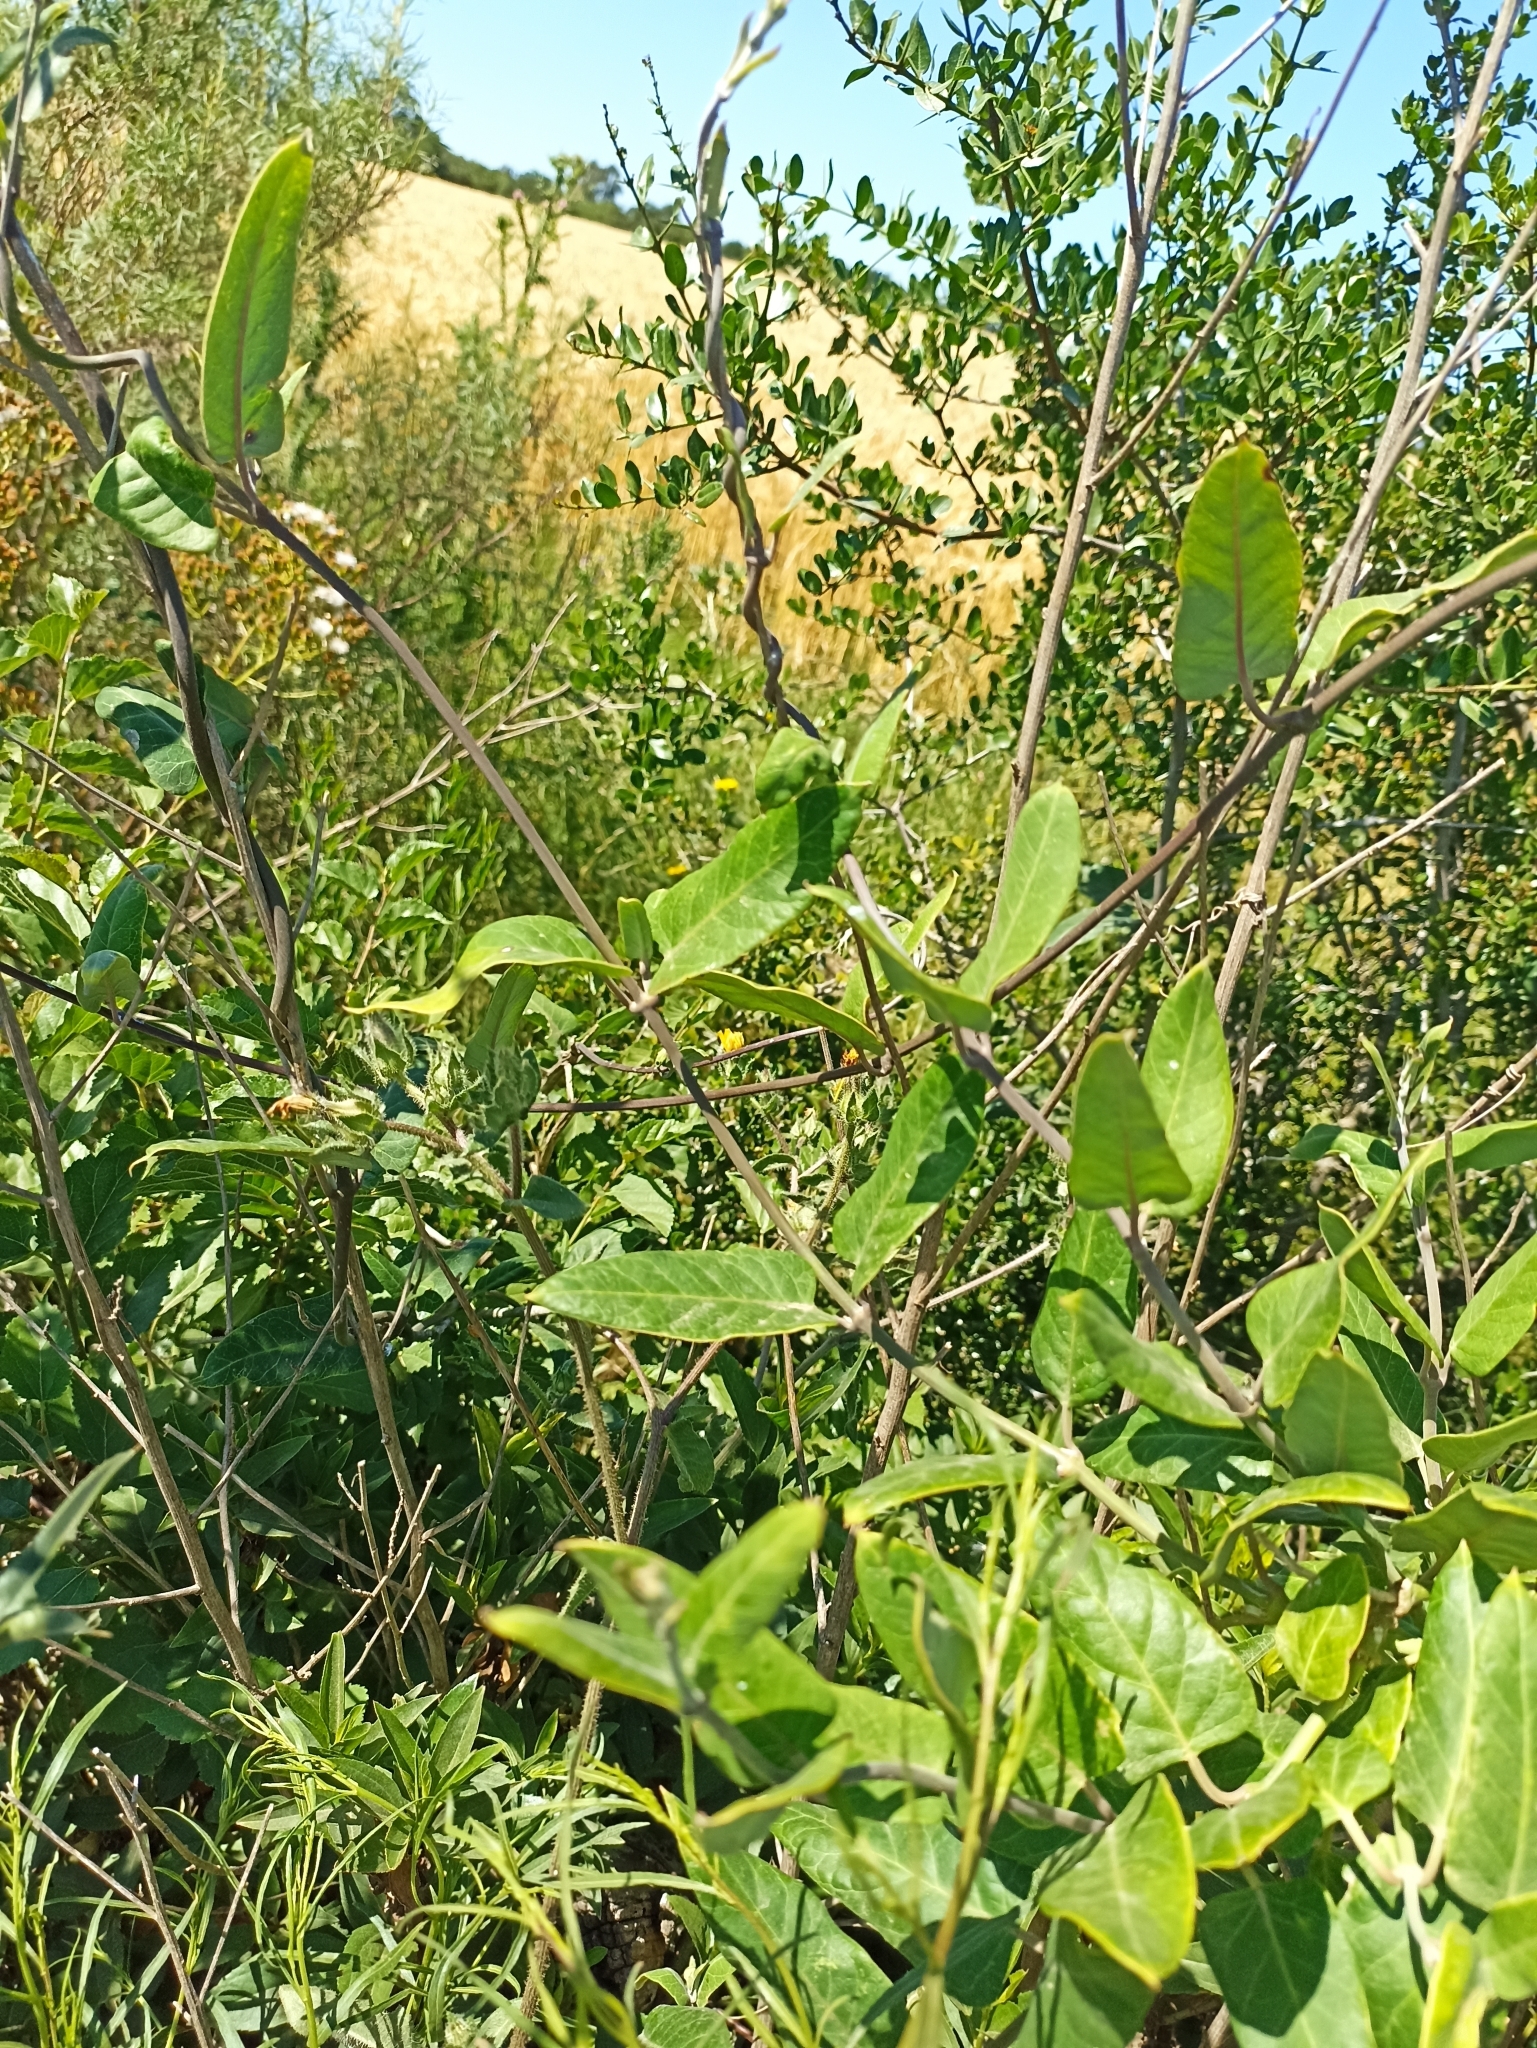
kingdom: Plantae
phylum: Tracheophyta
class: Magnoliopsida
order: Gentianales
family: Apocynaceae
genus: Araujia
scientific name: Araujia sericifera
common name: White bladderflower
